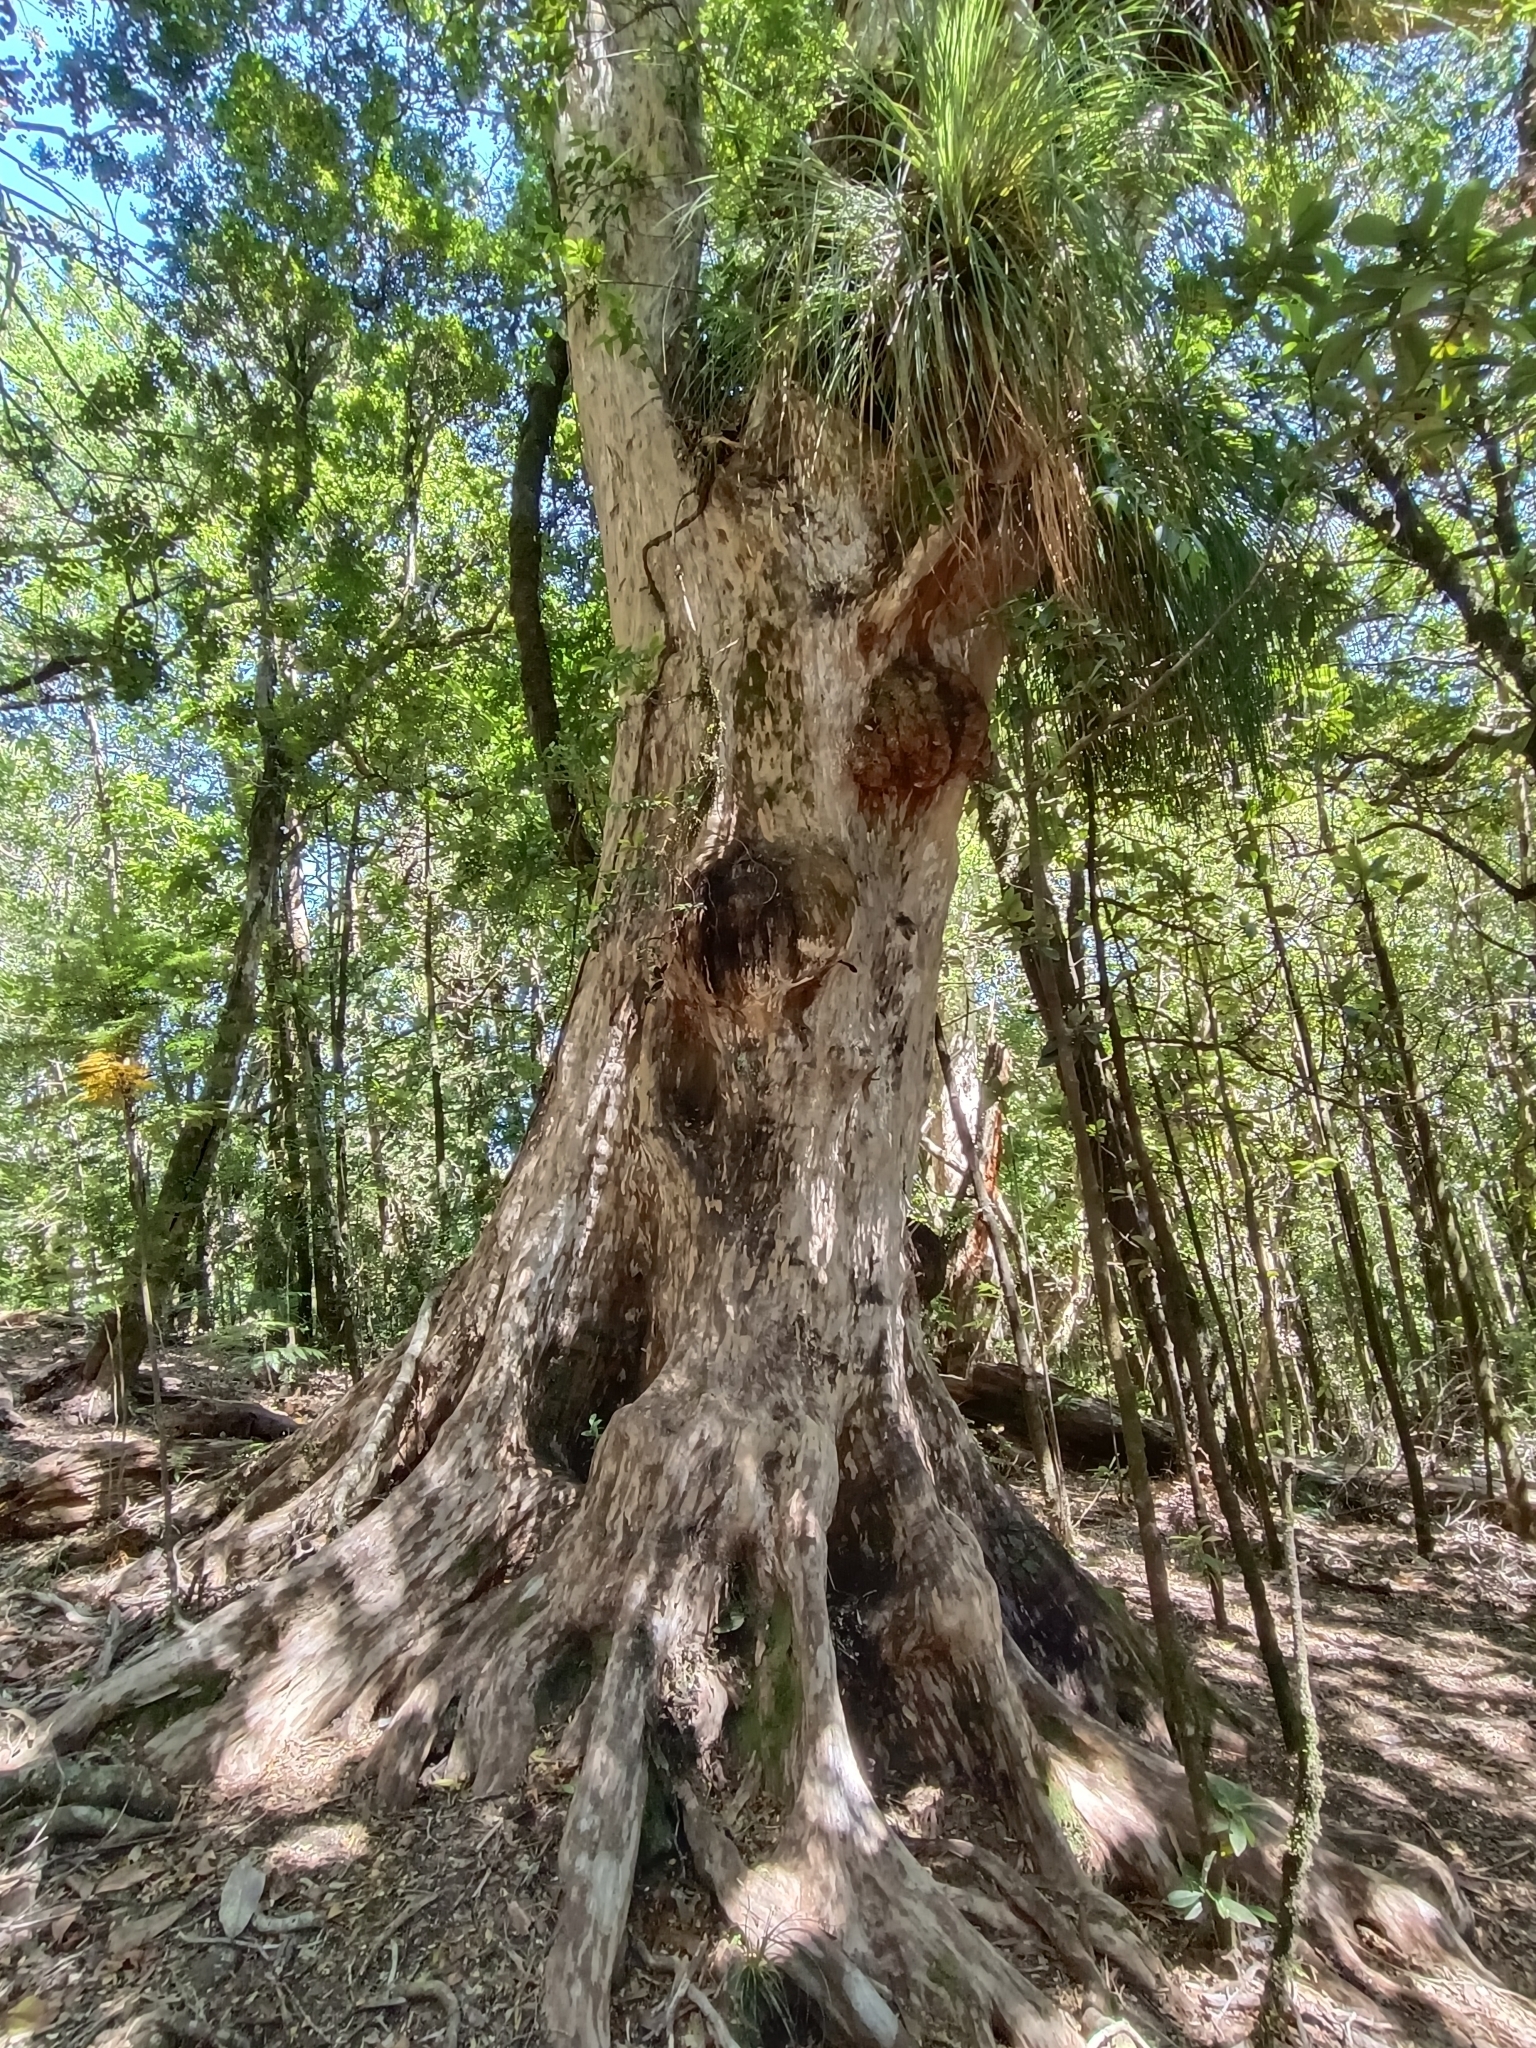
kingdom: Plantae
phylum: Tracheophyta
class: Magnoliopsida
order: Myrtales
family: Myrtaceae
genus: Amomyrtus
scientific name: Amomyrtus meli
